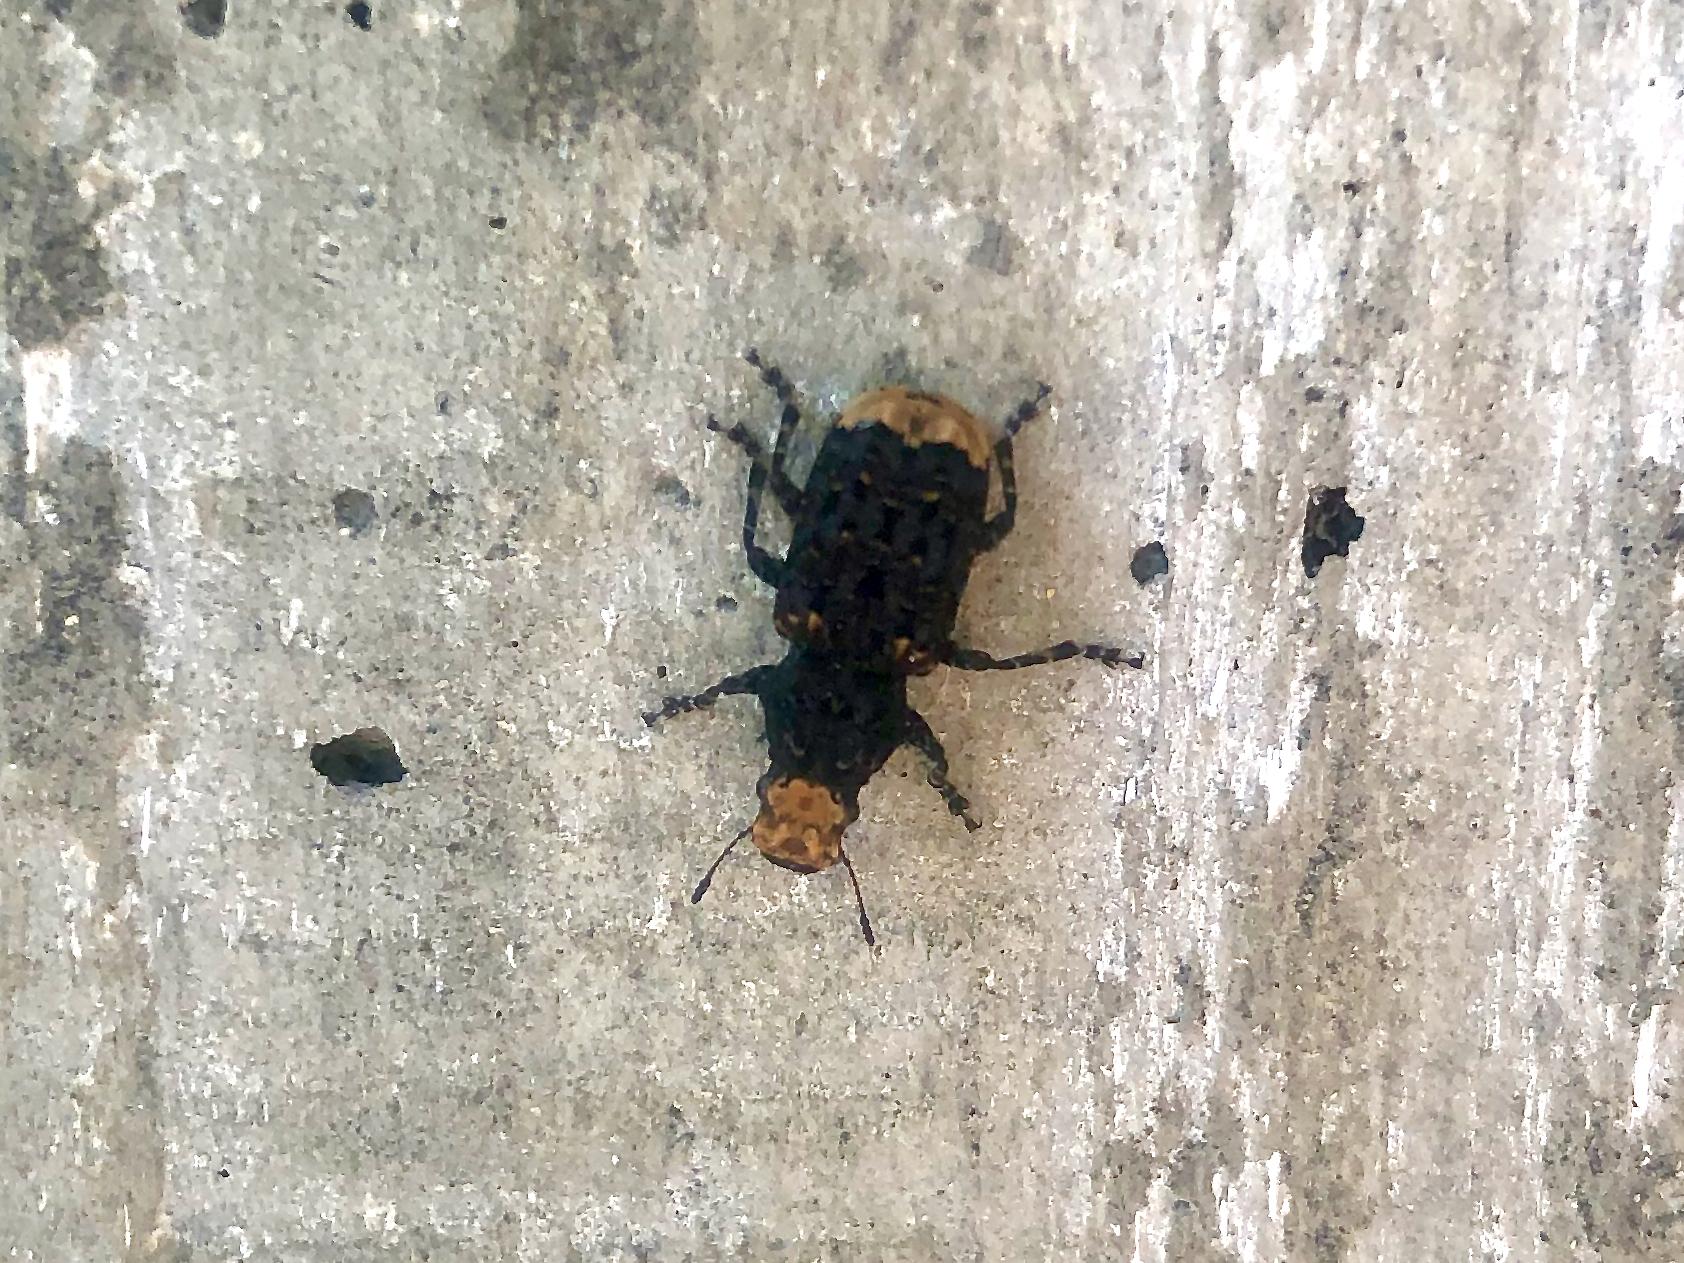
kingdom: Animalia
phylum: Arthropoda
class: Insecta
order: Coleoptera
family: Anthribidae
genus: Platyrhinus
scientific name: Platyrhinus resinosus
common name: Cramp-ball fungus weevil
